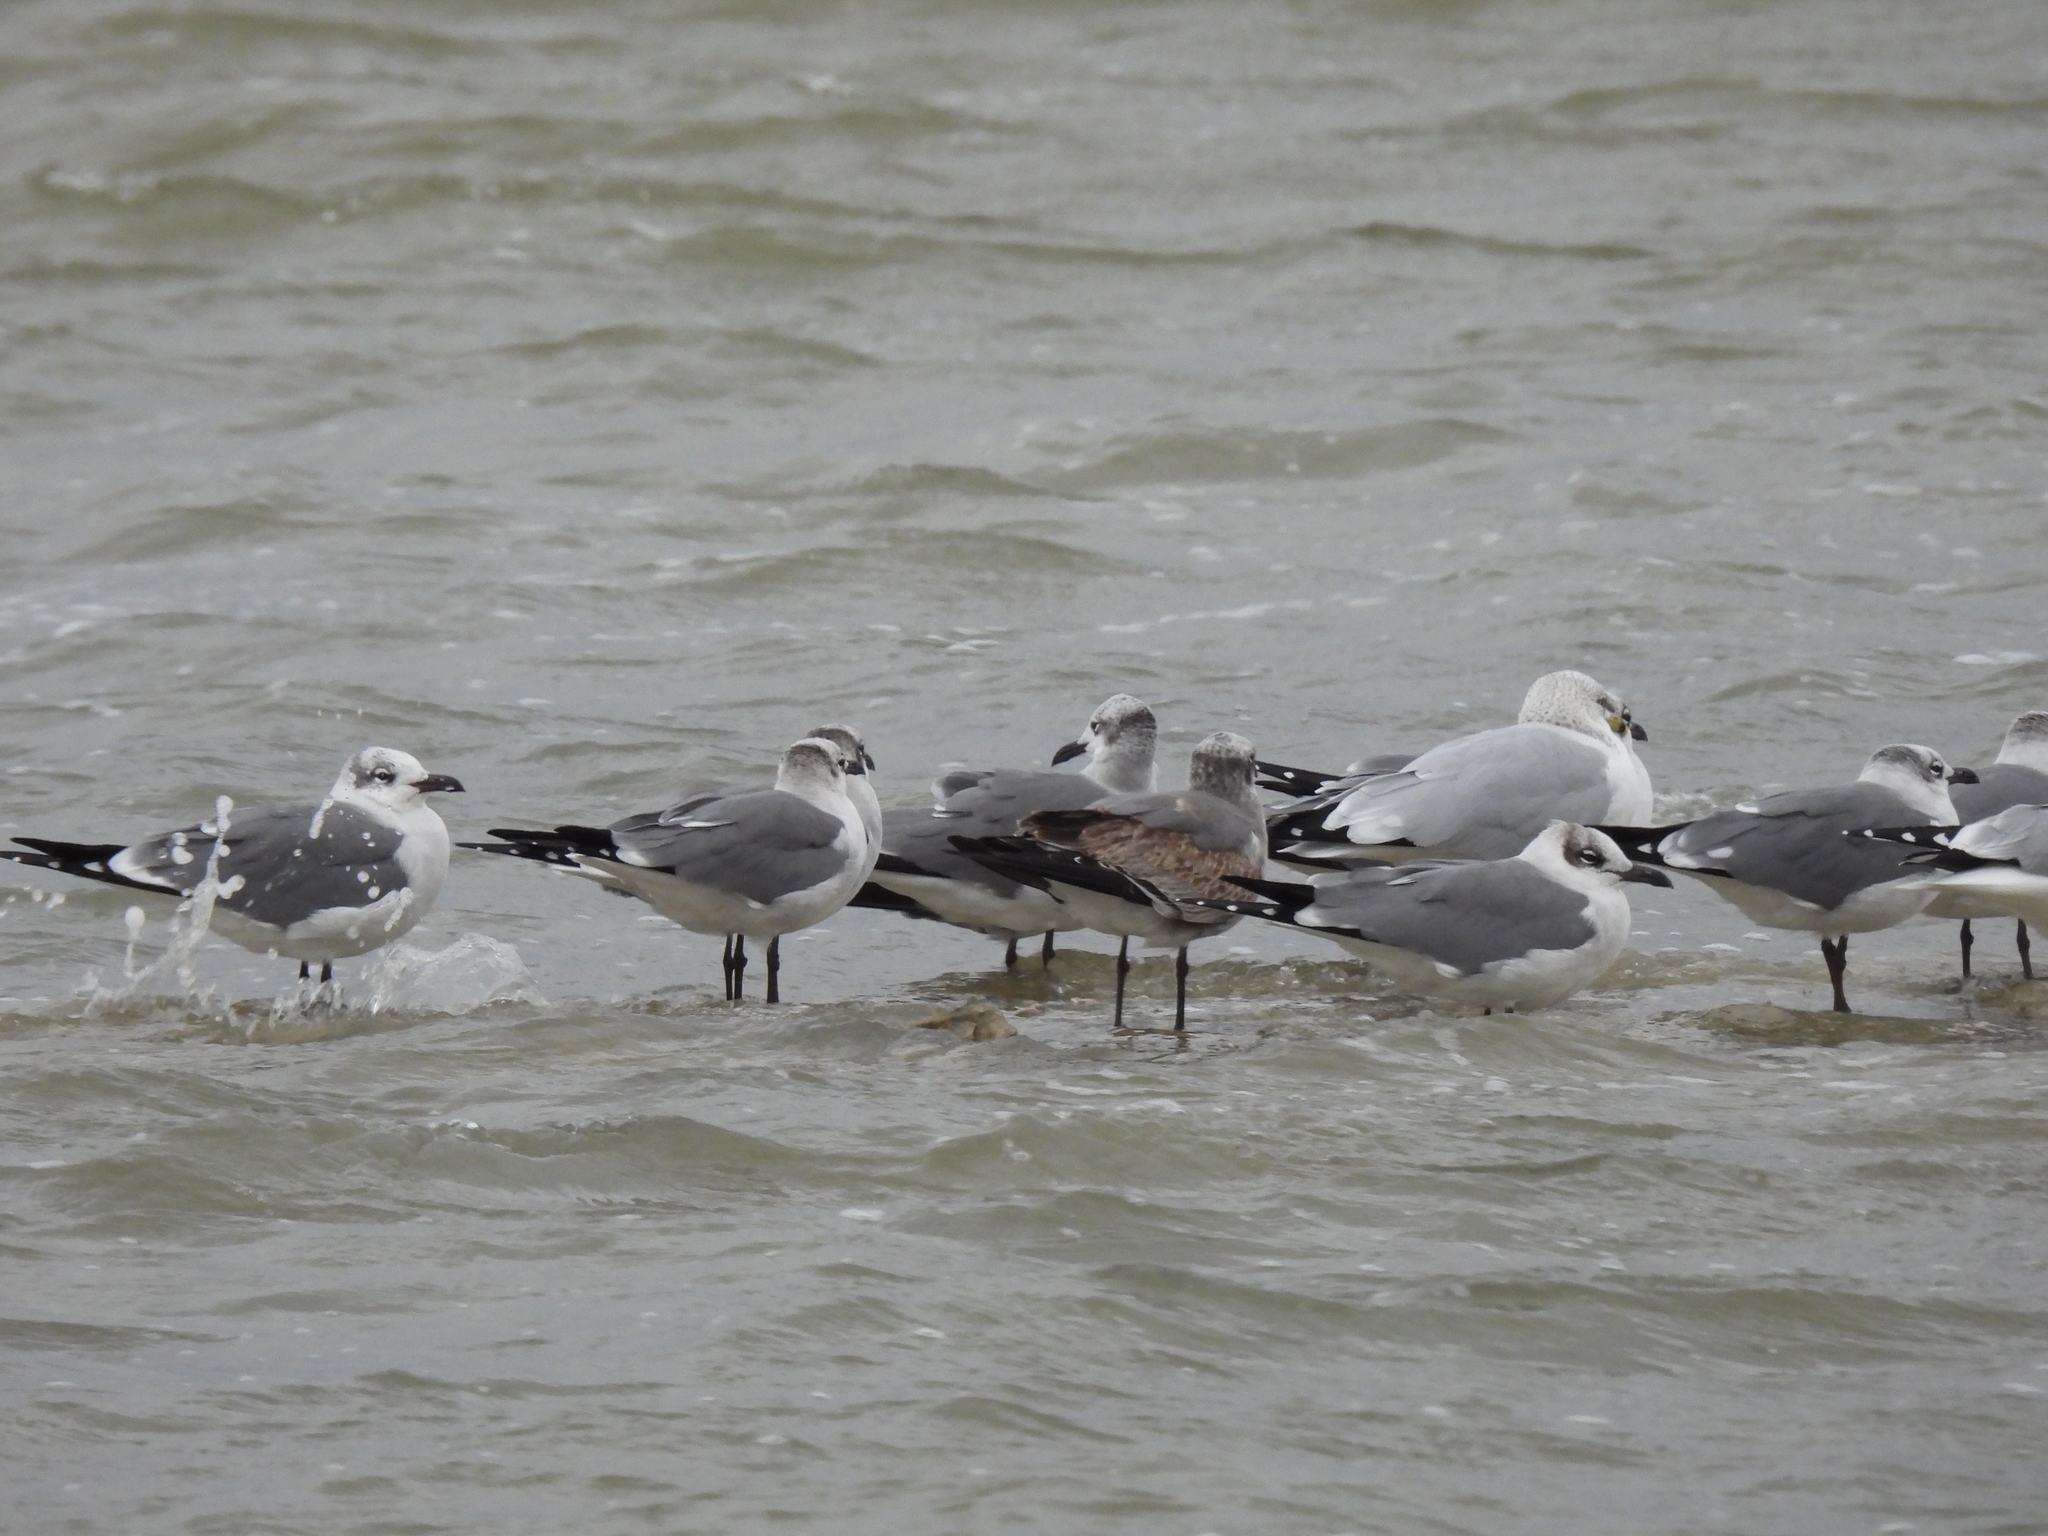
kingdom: Animalia
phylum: Chordata
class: Aves
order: Charadriiformes
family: Laridae
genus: Leucophaeus
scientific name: Leucophaeus atricilla
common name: Laughing gull
